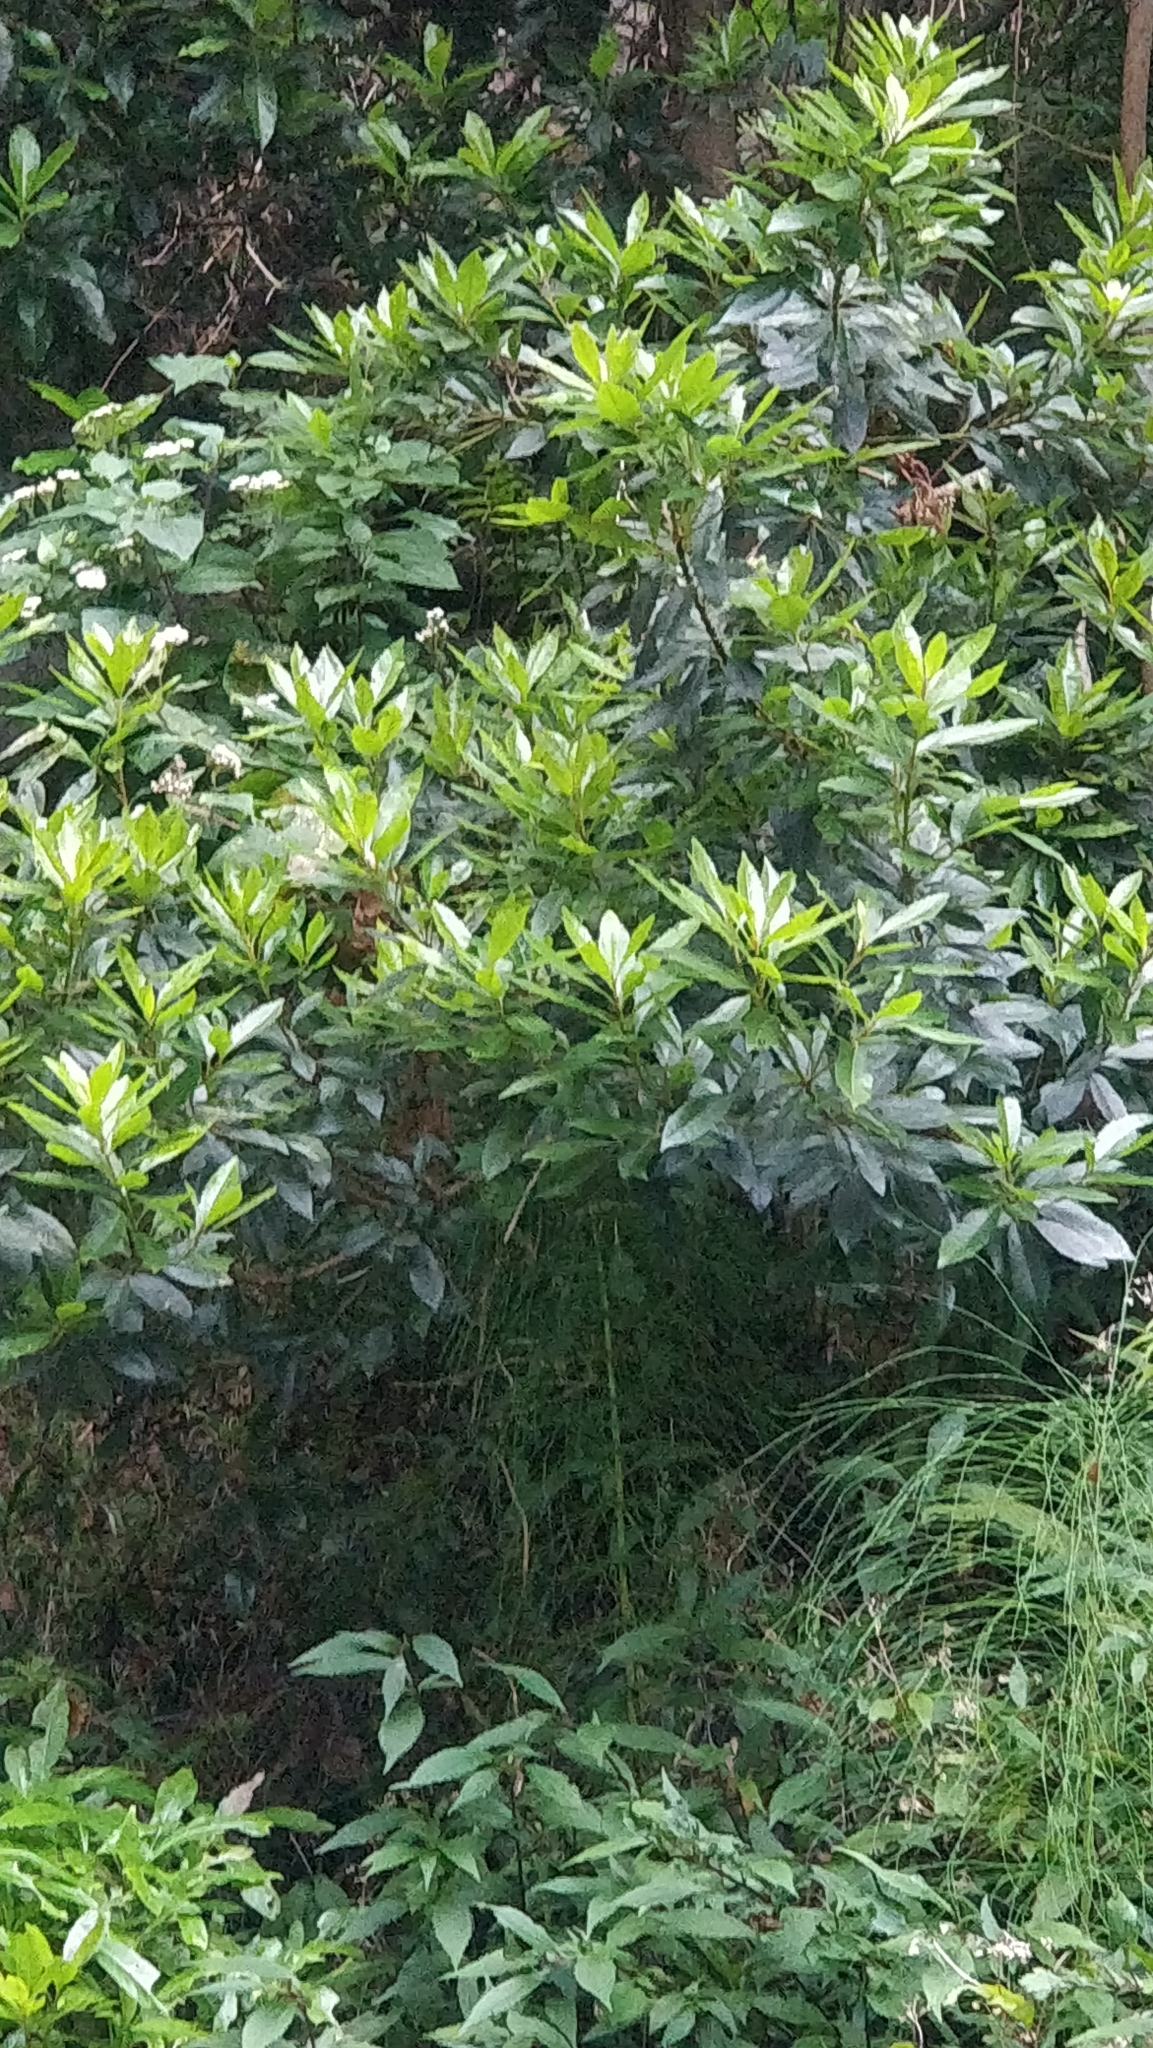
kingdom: Plantae
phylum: Tracheophyta
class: Magnoliopsida
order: Fagales
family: Myricaceae
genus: Morella
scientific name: Morella faya
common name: Firetree
